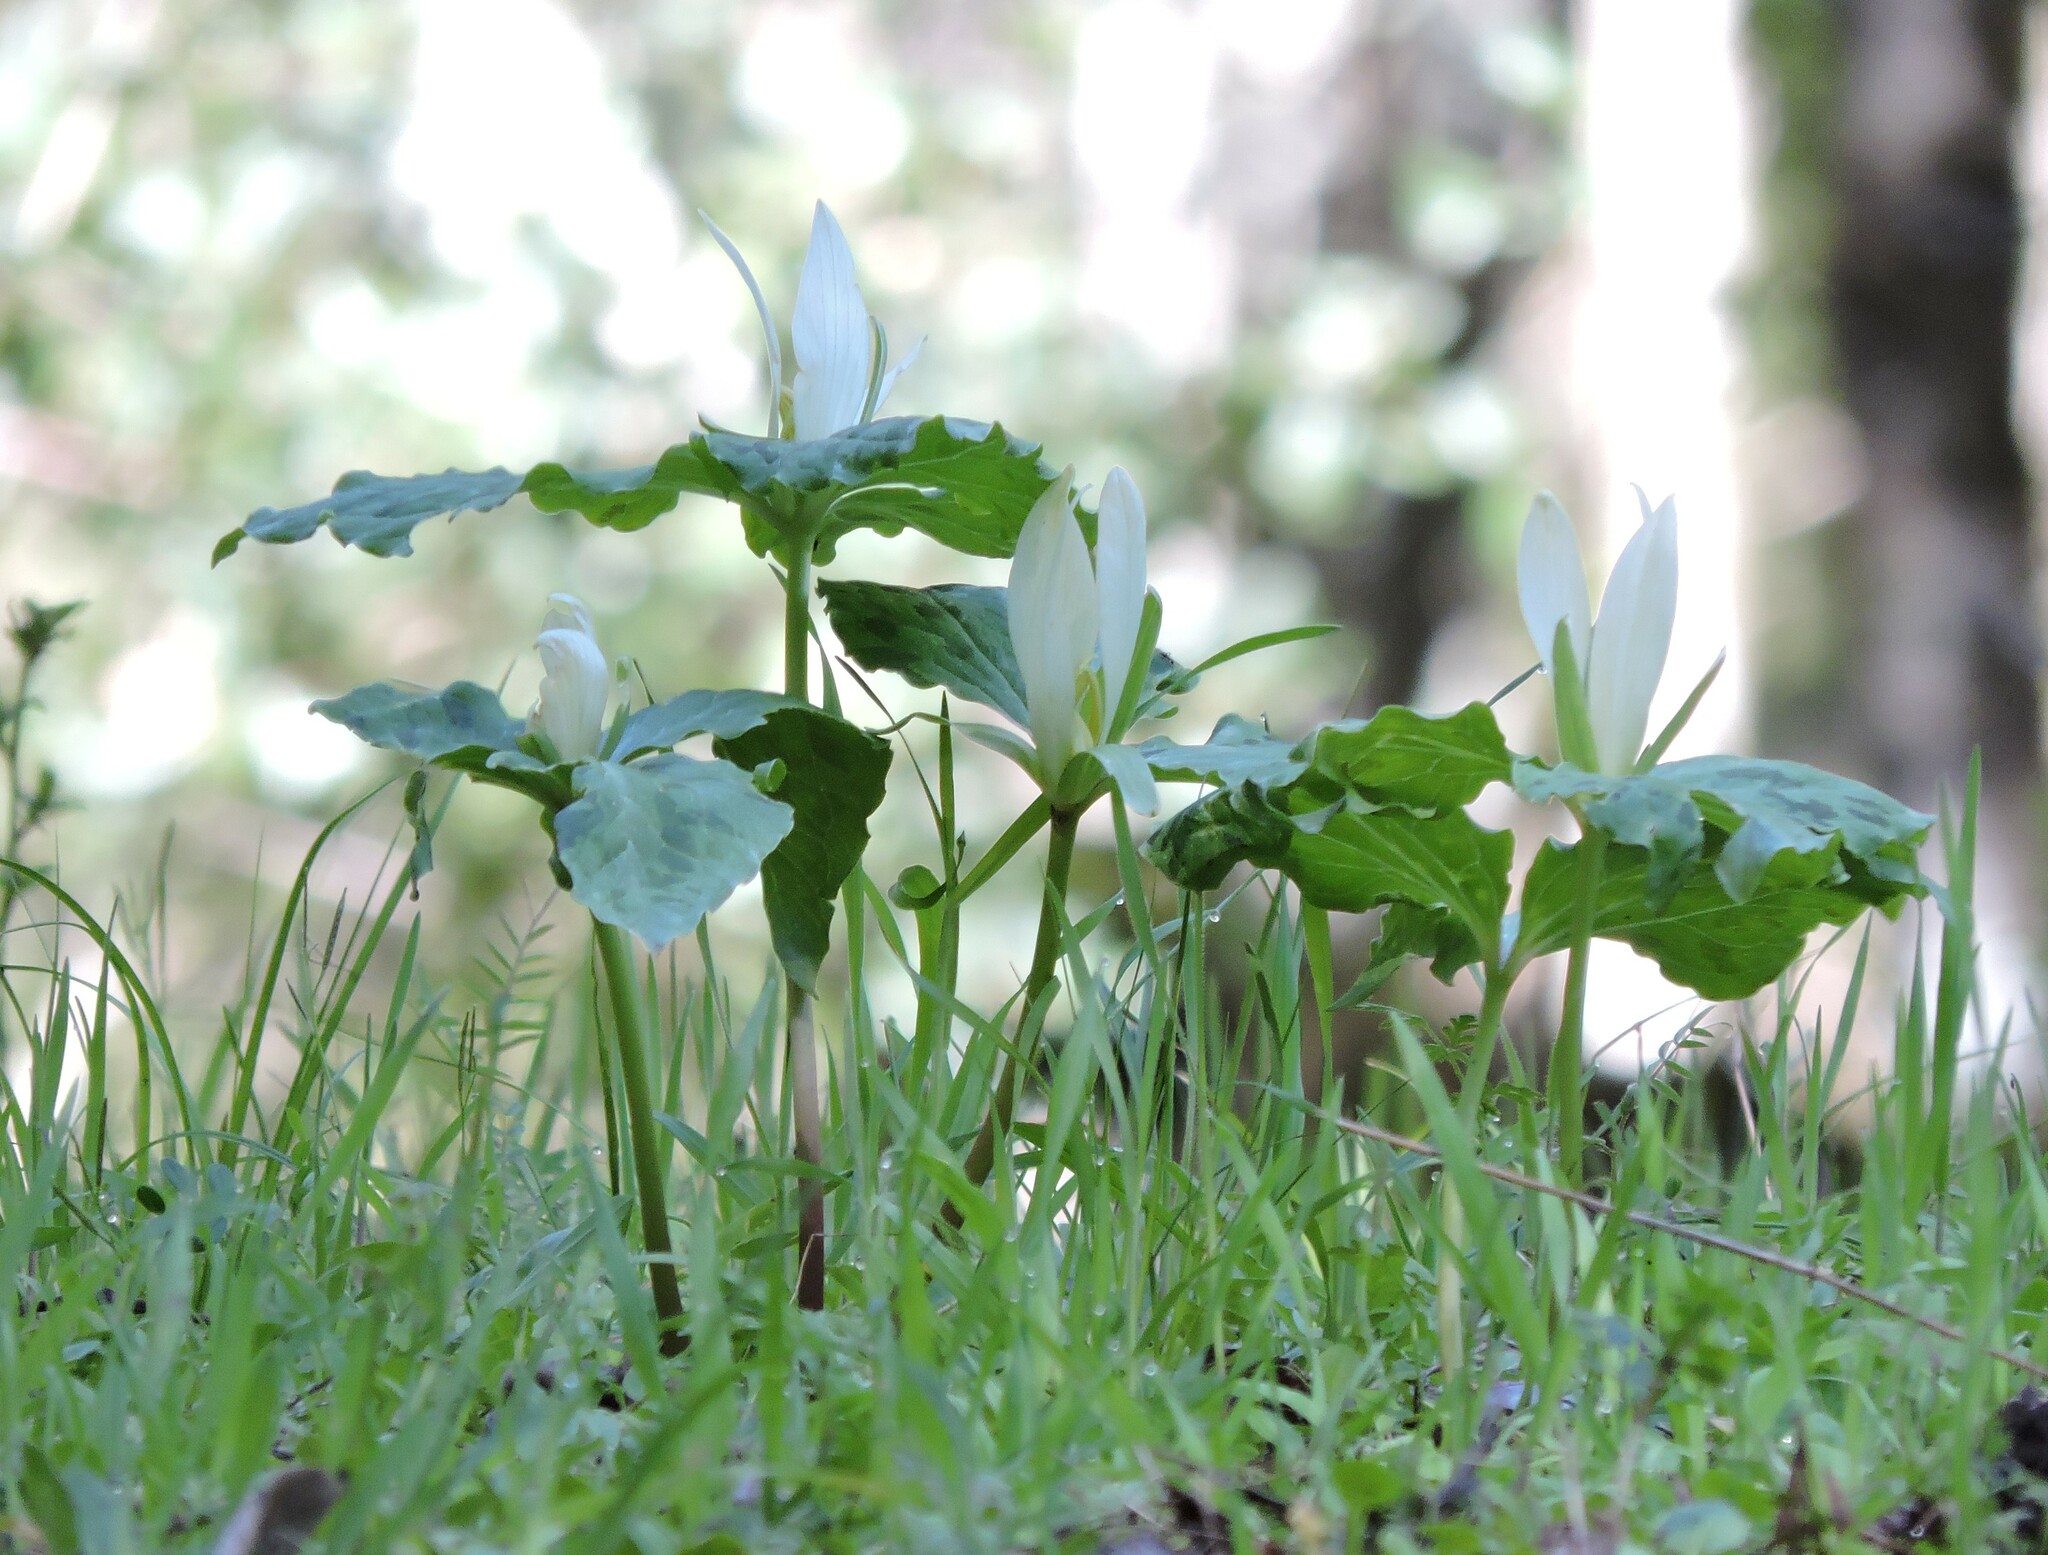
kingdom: Plantae
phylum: Tracheophyta
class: Liliopsida
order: Liliales
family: Melanthiaceae
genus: Trillium
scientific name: Trillium albidum
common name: Freeman's trillium
